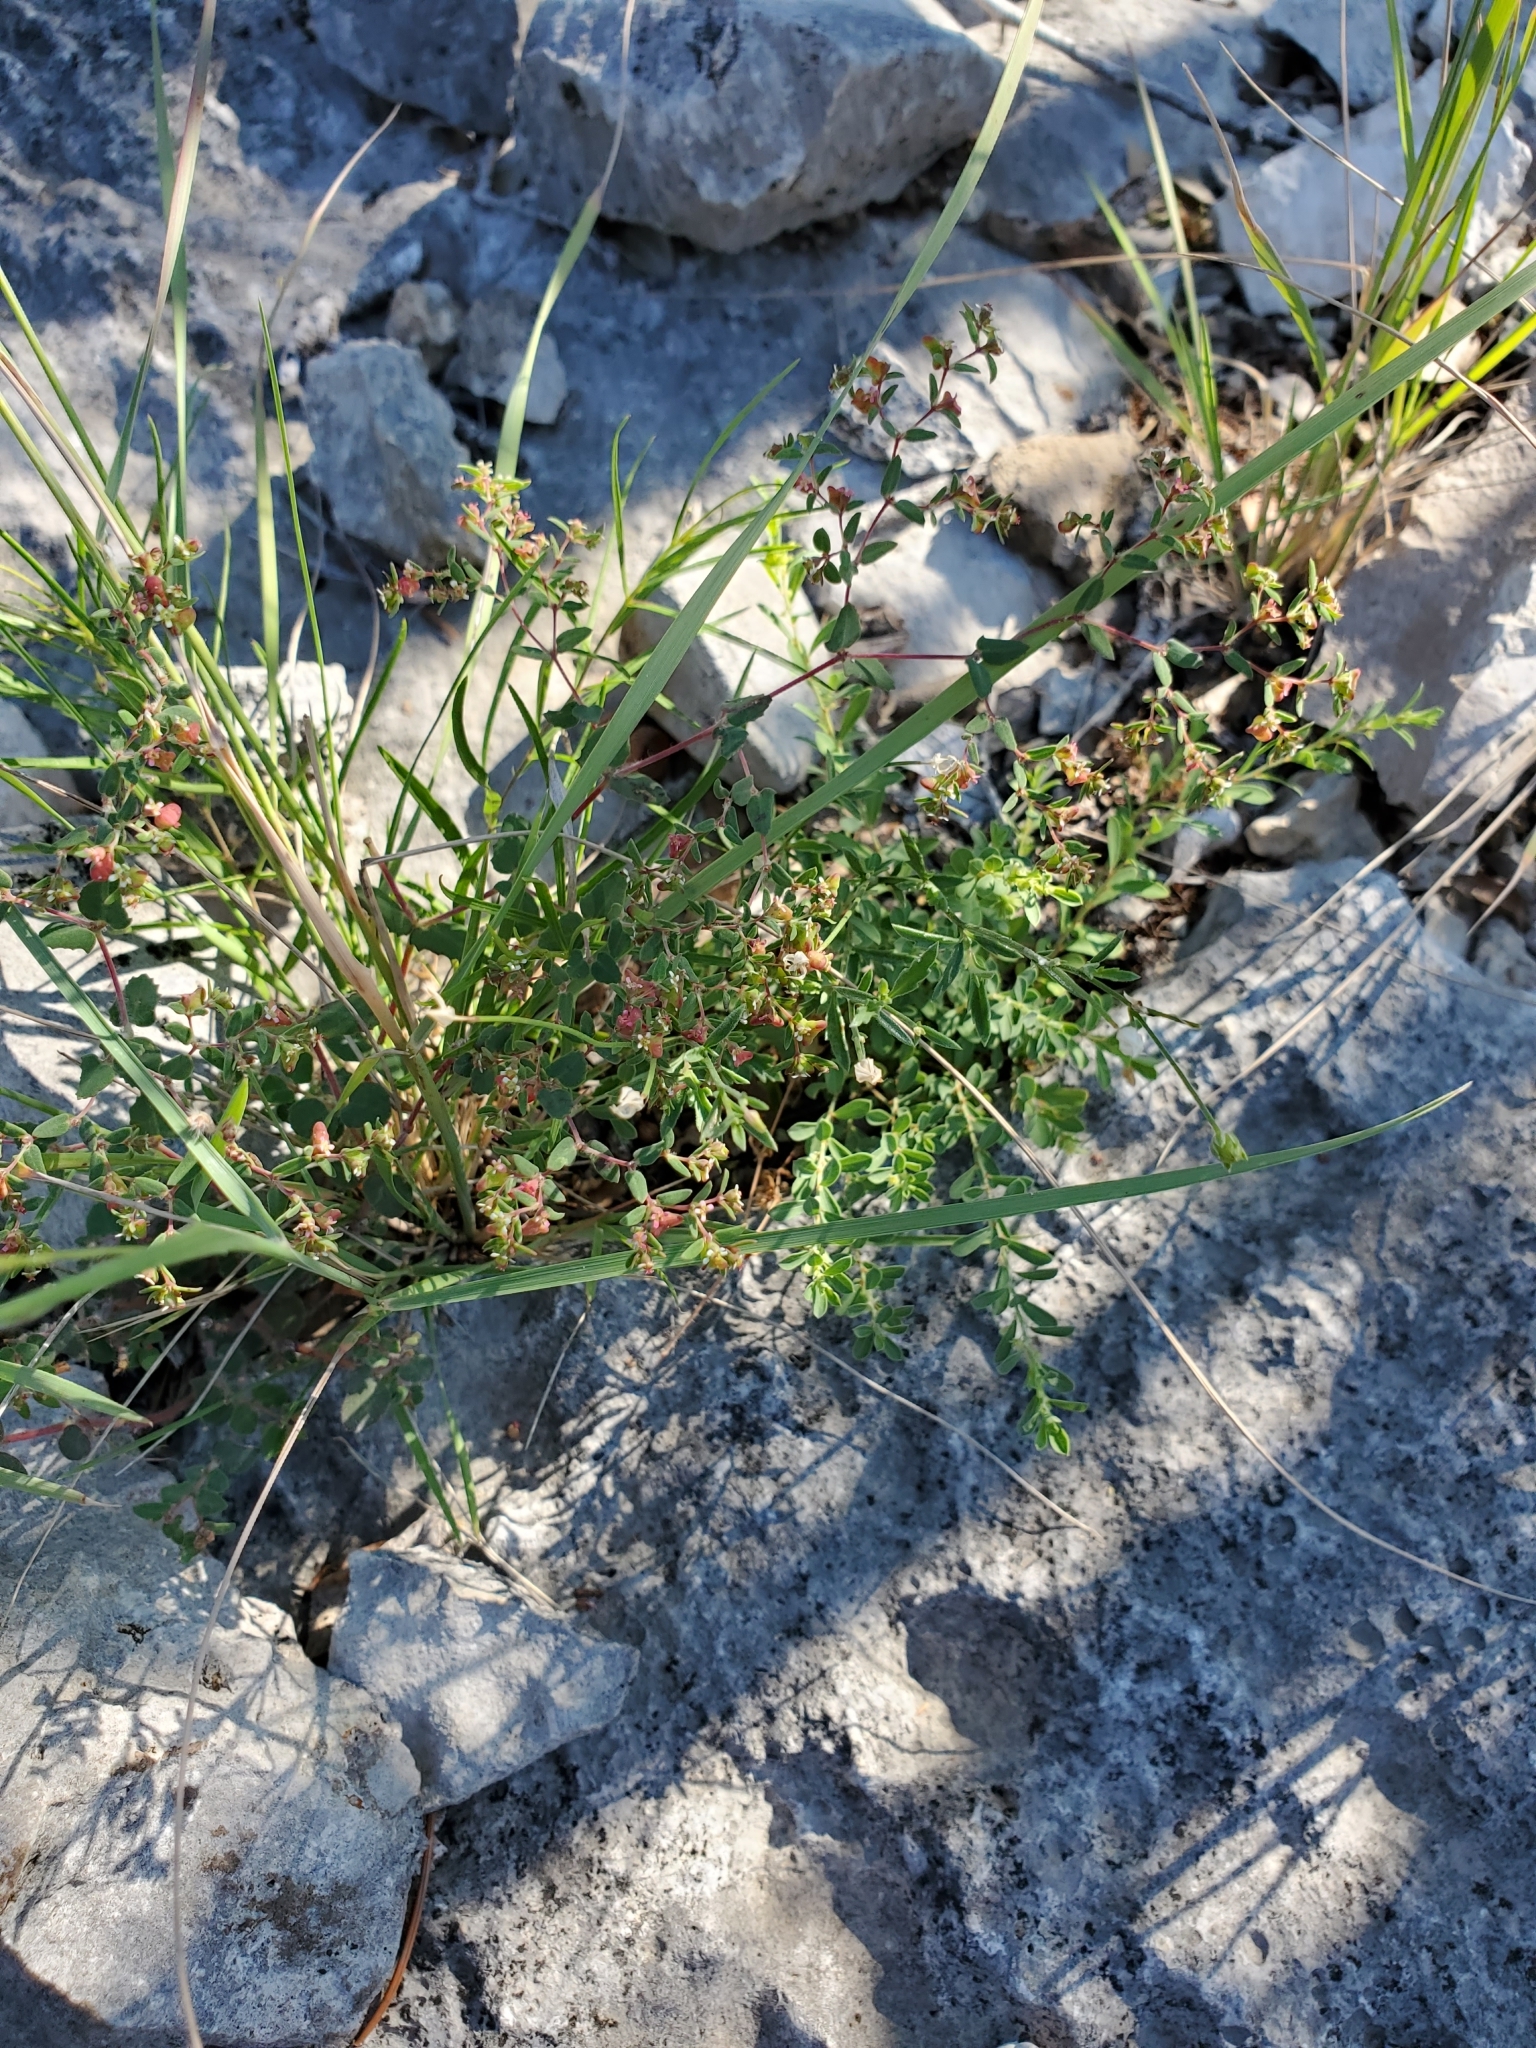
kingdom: Plantae
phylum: Tracheophyta
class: Magnoliopsida
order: Malpighiales
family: Euphorbiaceae
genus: Euphorbia
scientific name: Euphorbia villifera
